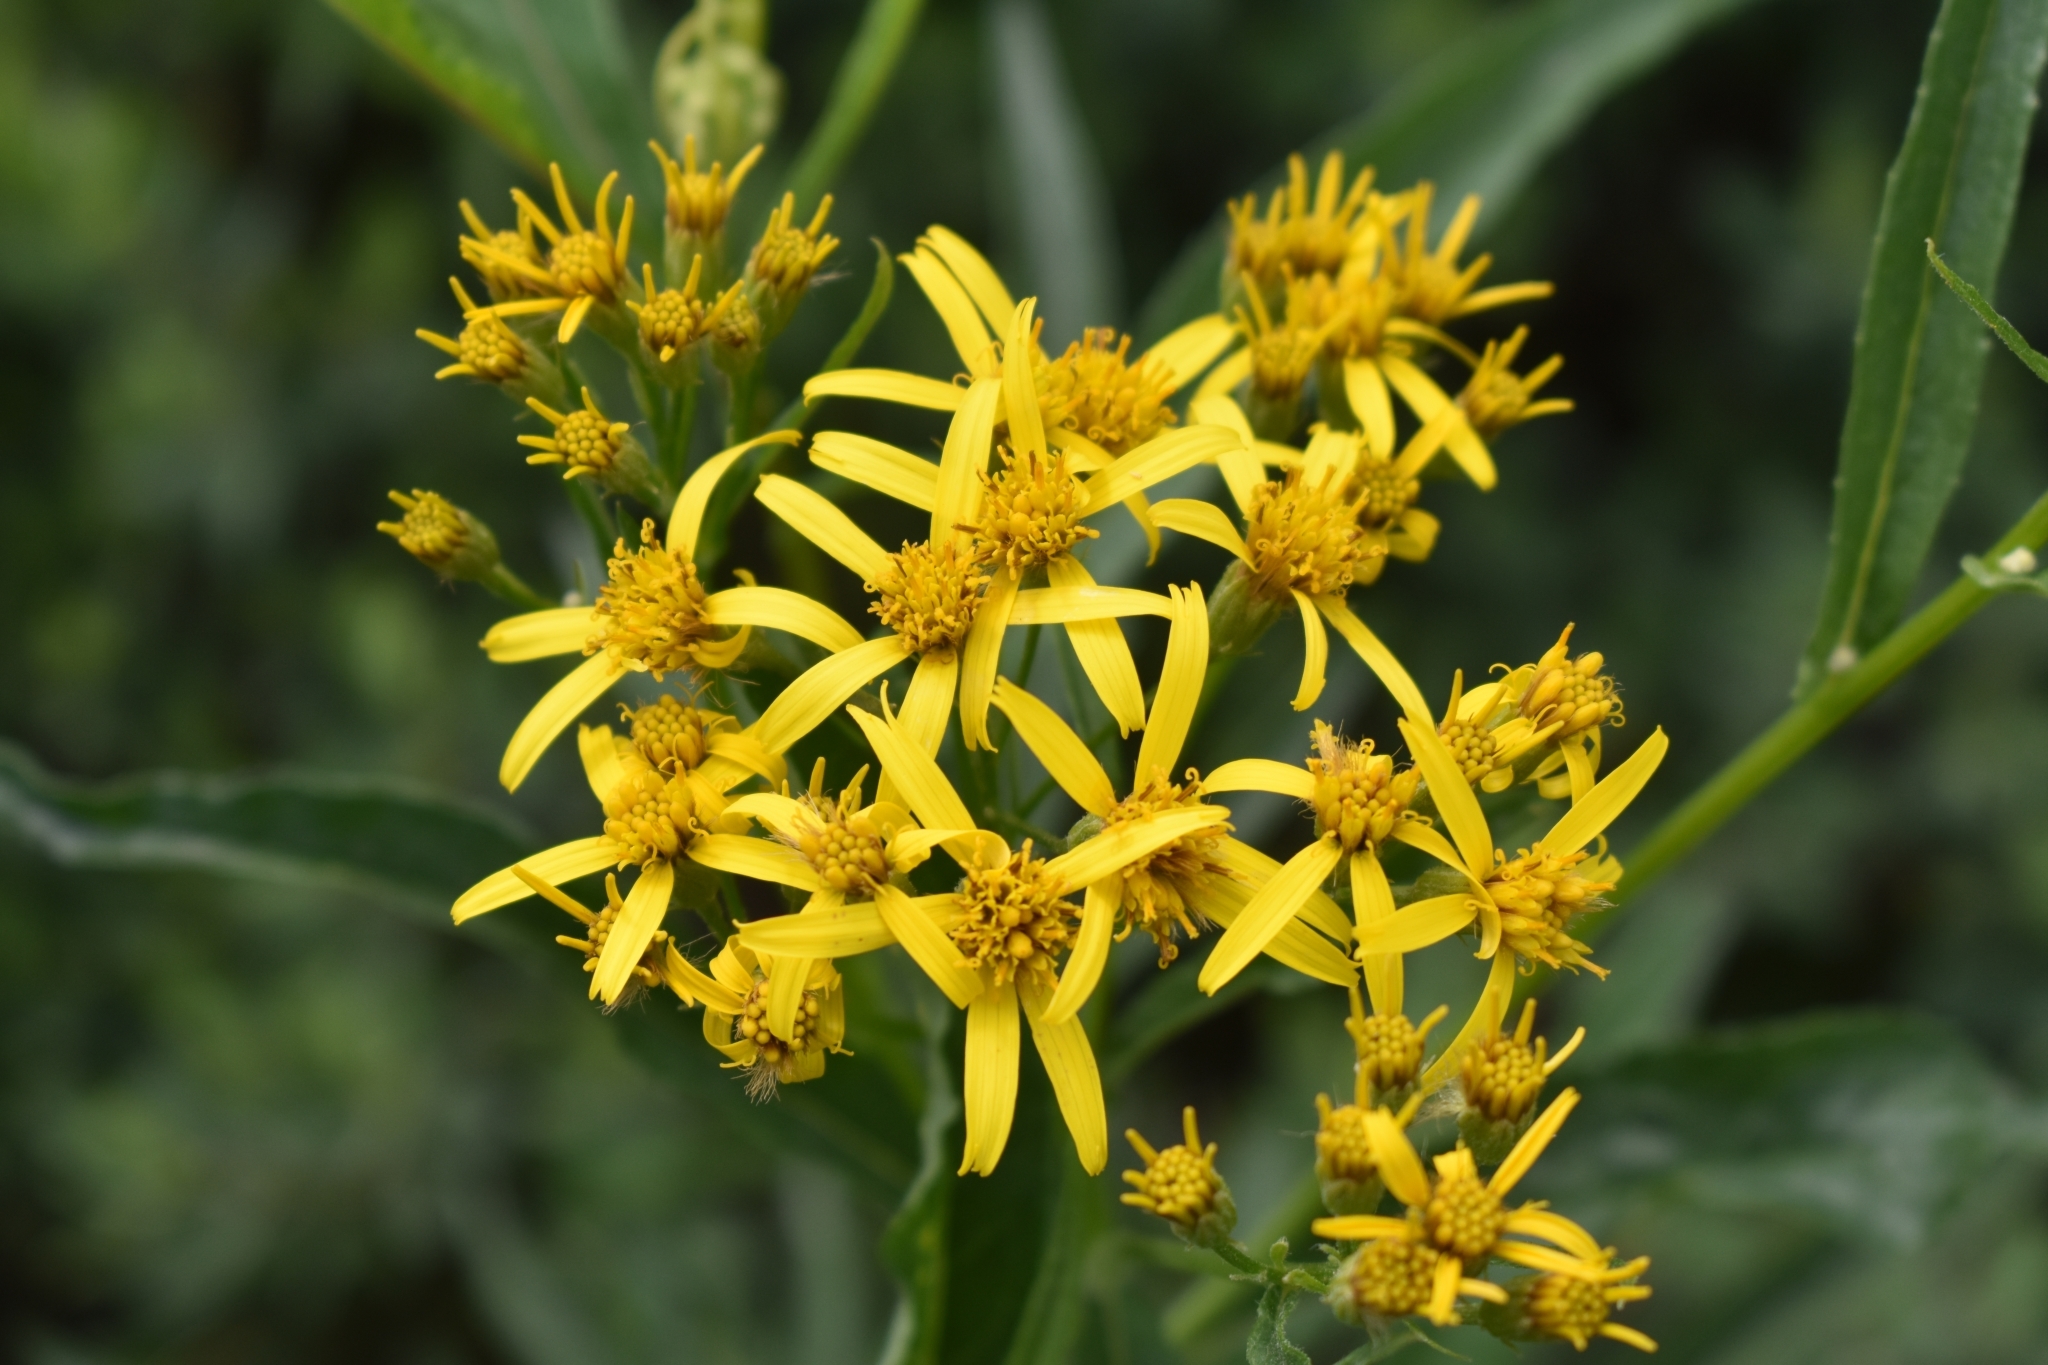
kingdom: Plantae
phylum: Tracheophyta
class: Magnoliopsida
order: Asterales
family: Asteraceae
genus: Jacobaea
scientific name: Jacobaea cannabifolia
